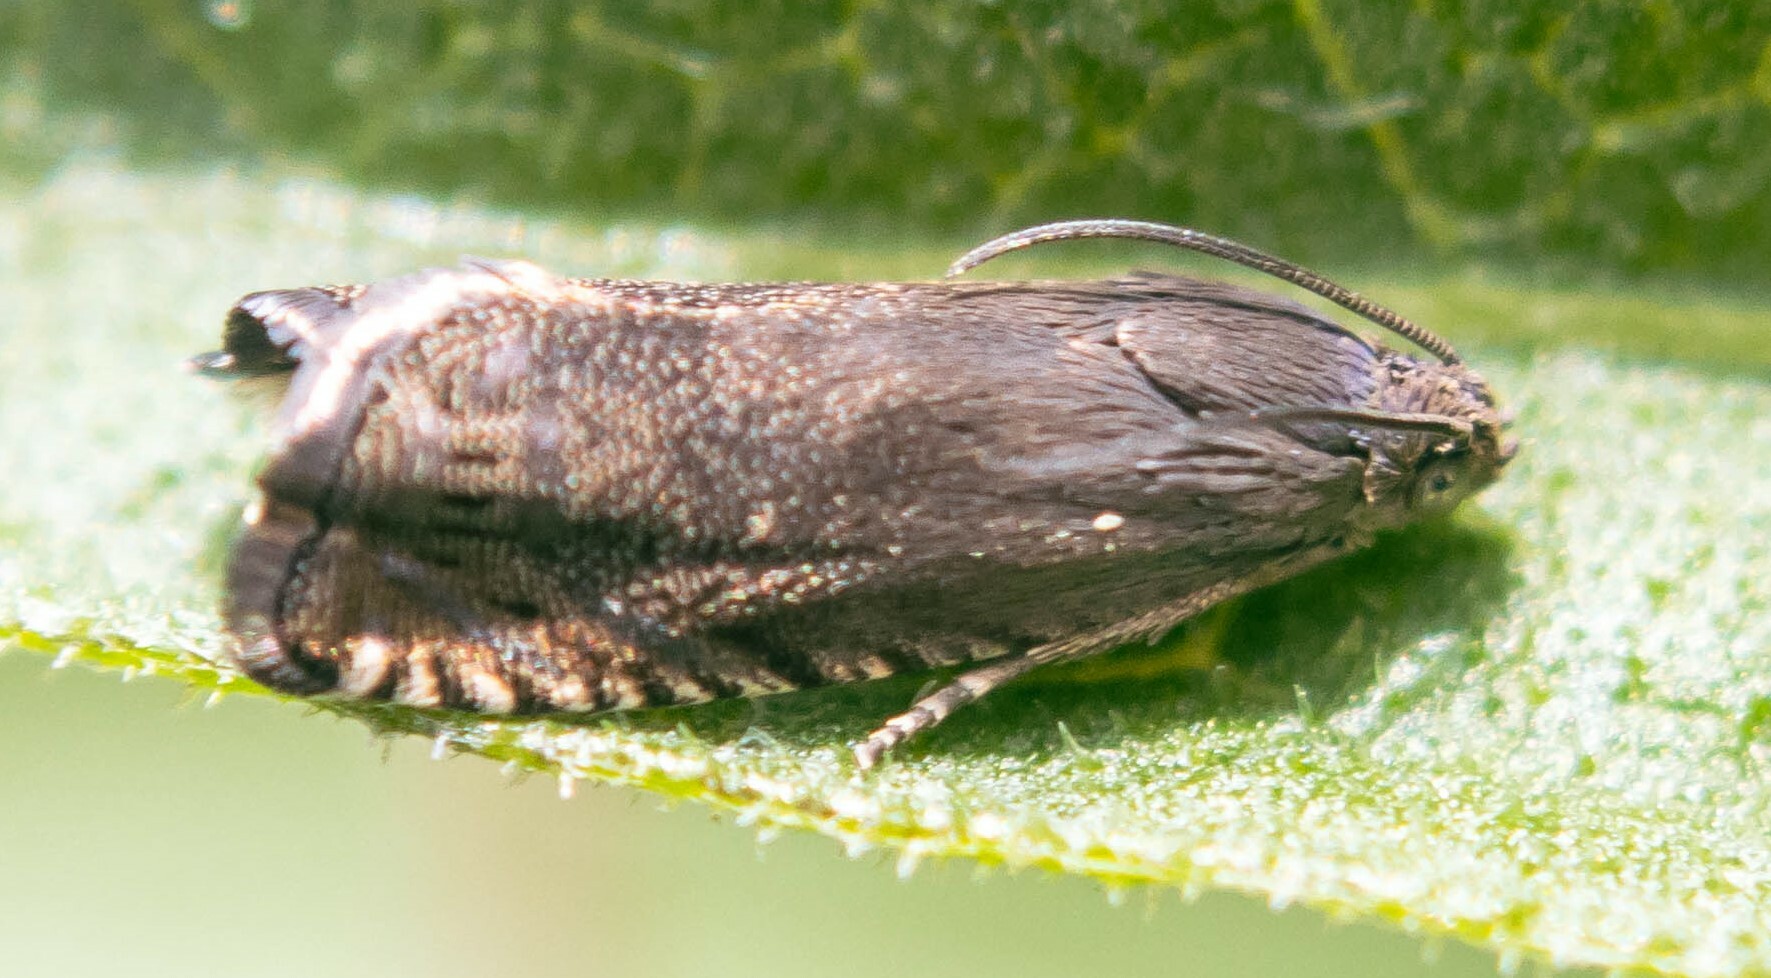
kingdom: Animalia
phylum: Arthropoda
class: Insecta
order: Lepidoptera
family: Tortricidae
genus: Cydia
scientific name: Cydia nigricana
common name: Pea moth
